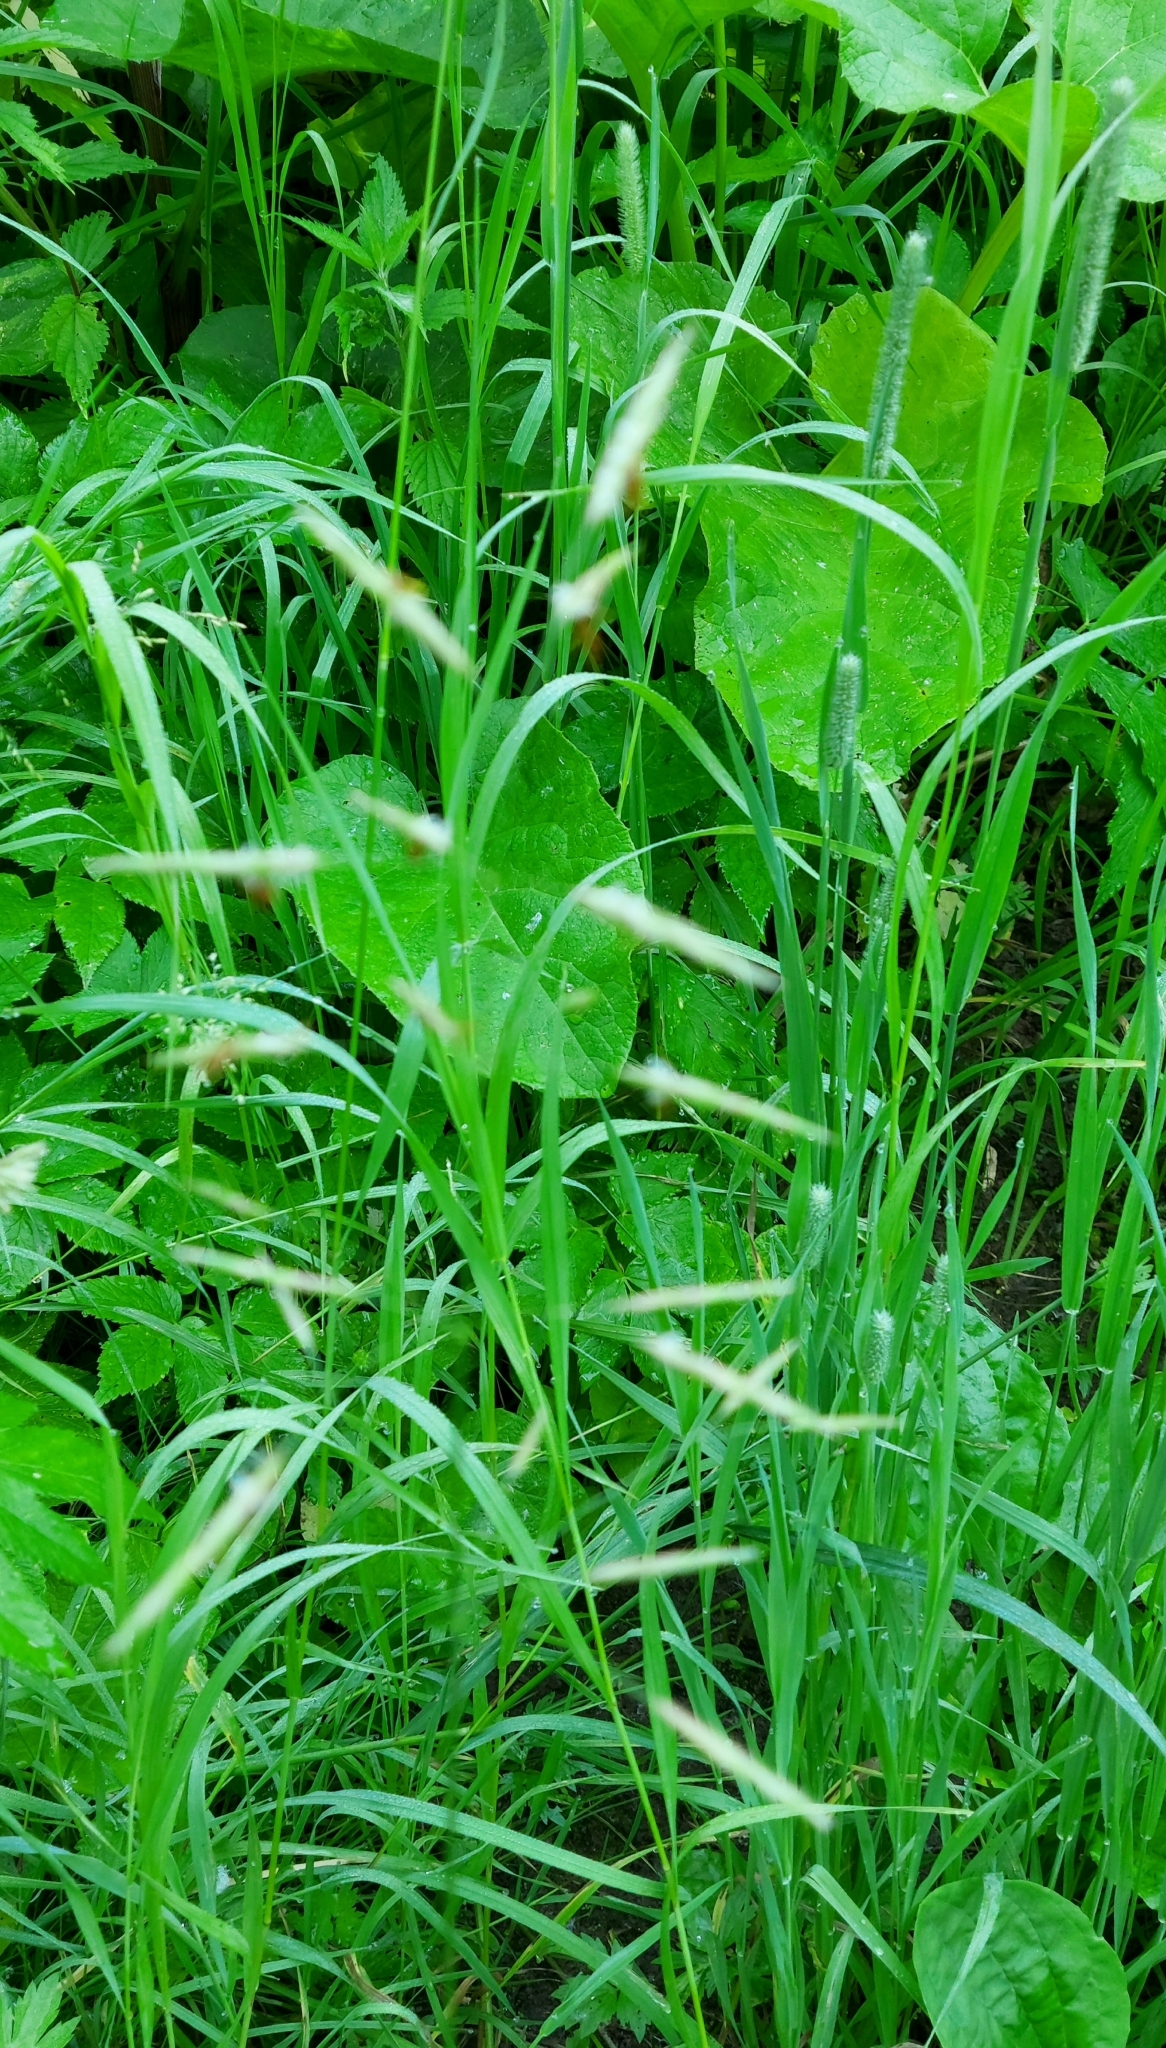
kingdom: Plantae
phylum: Tracheophyta
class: Liliopsida
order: Poales
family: Poaceae
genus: Bromus
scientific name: Bromus inermis
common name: Smooth brome
